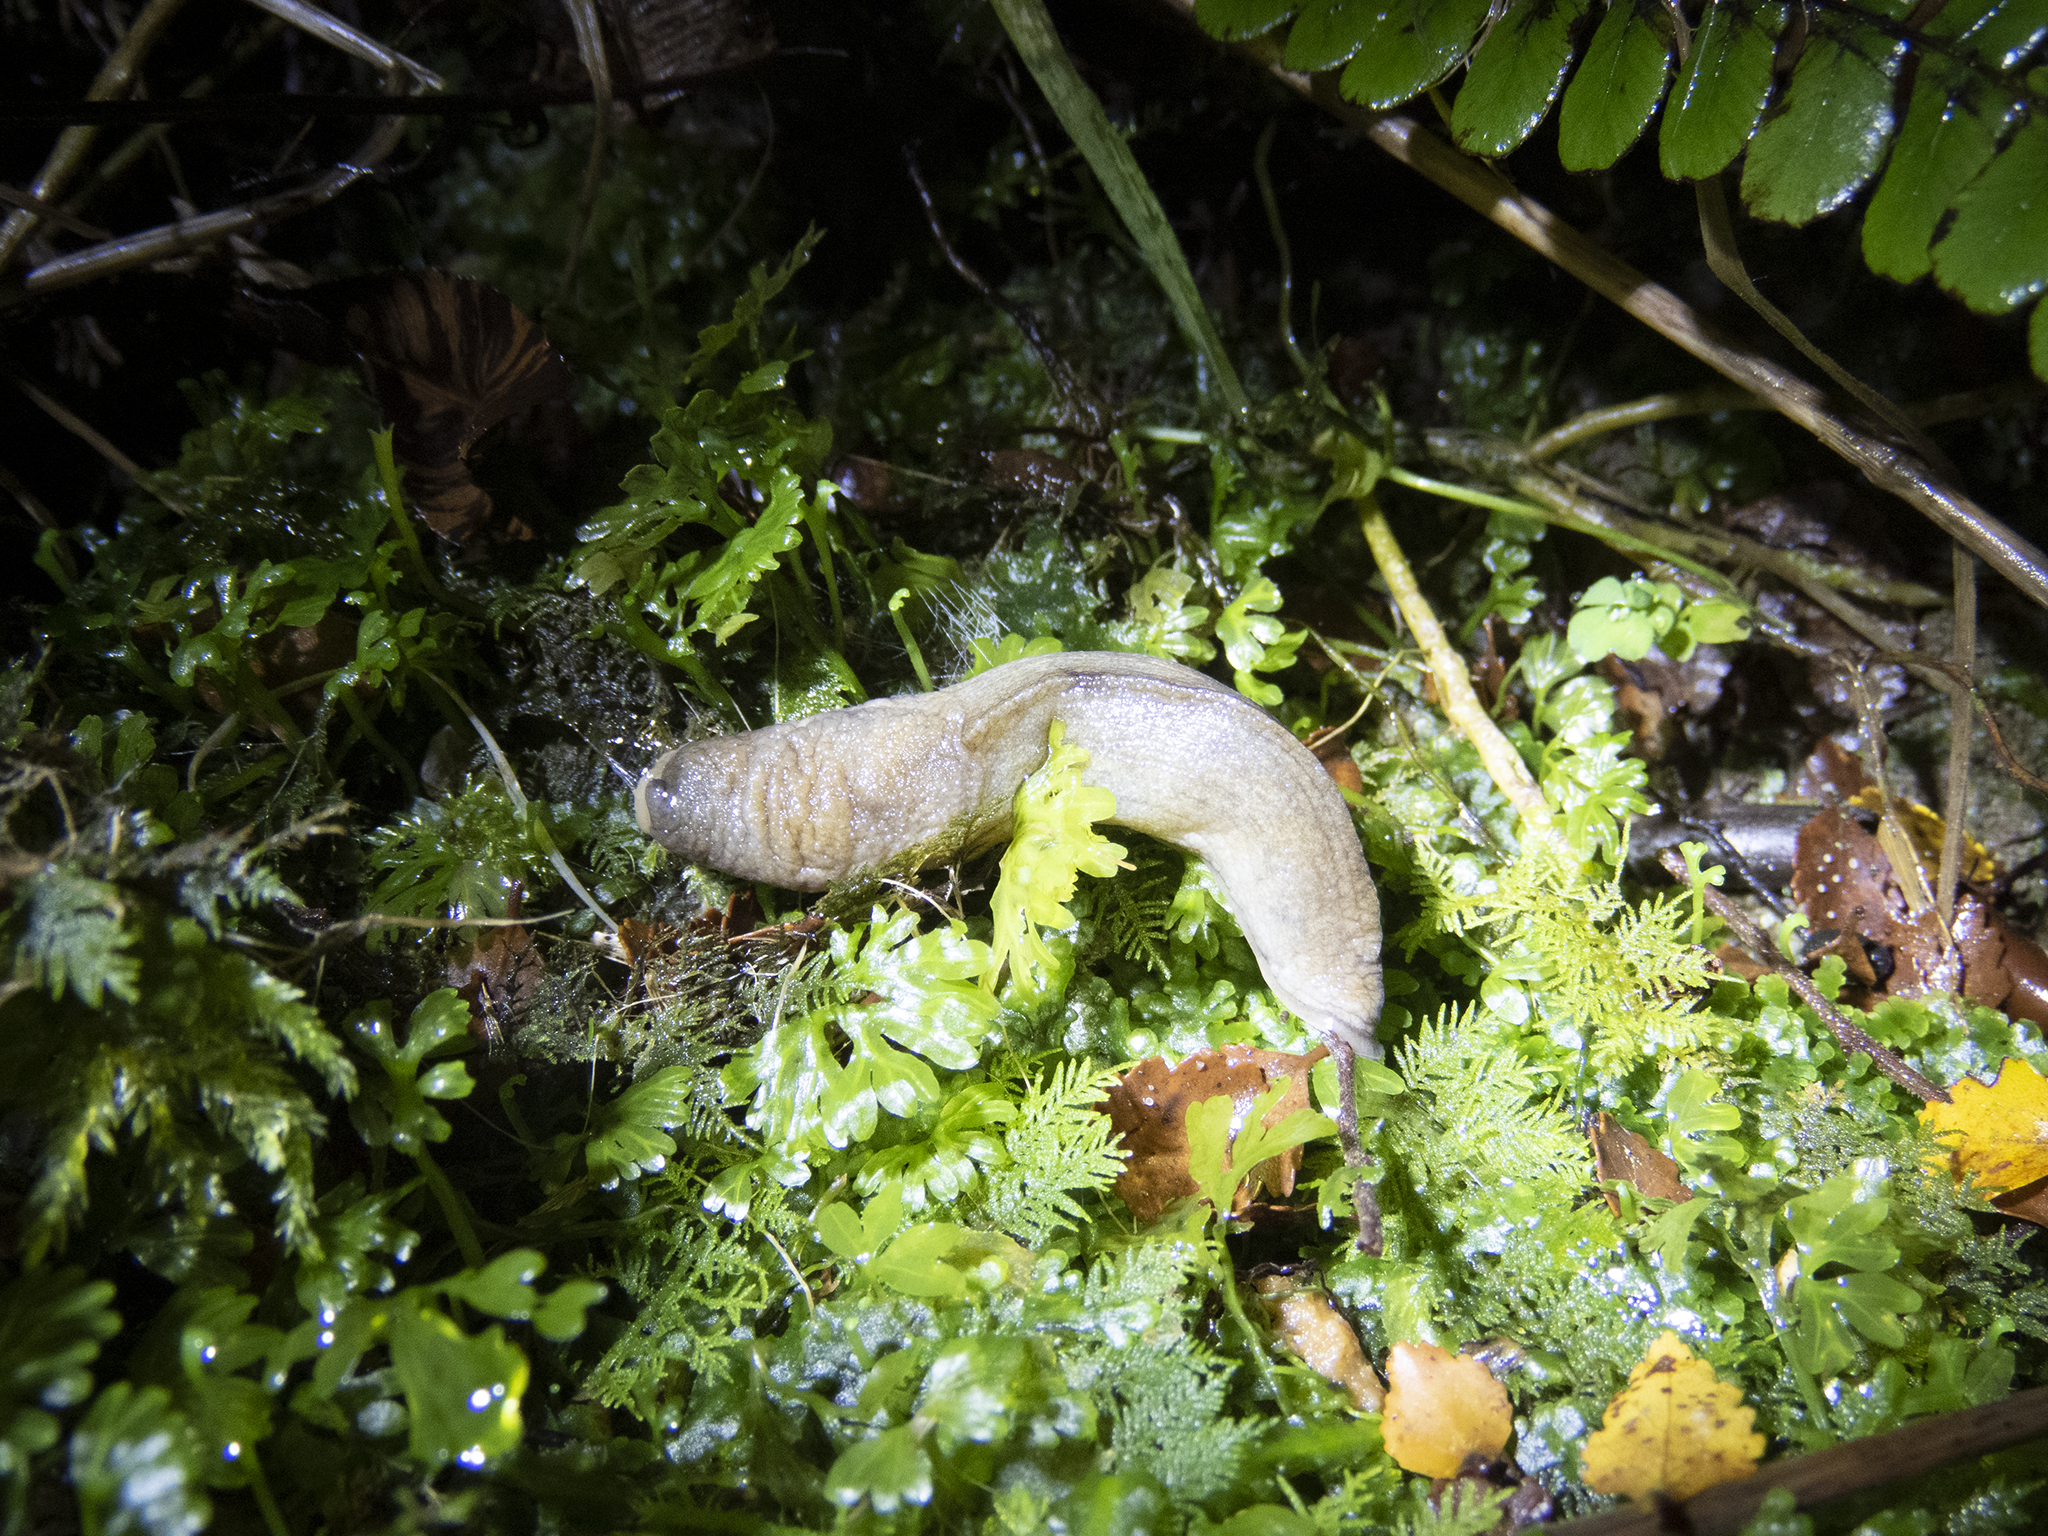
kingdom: Animalia
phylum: Mollusca
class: Gastropoda
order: Stylommatophora
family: Milacidae
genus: Milax
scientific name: Milax gagates
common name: Greenhouse slug
